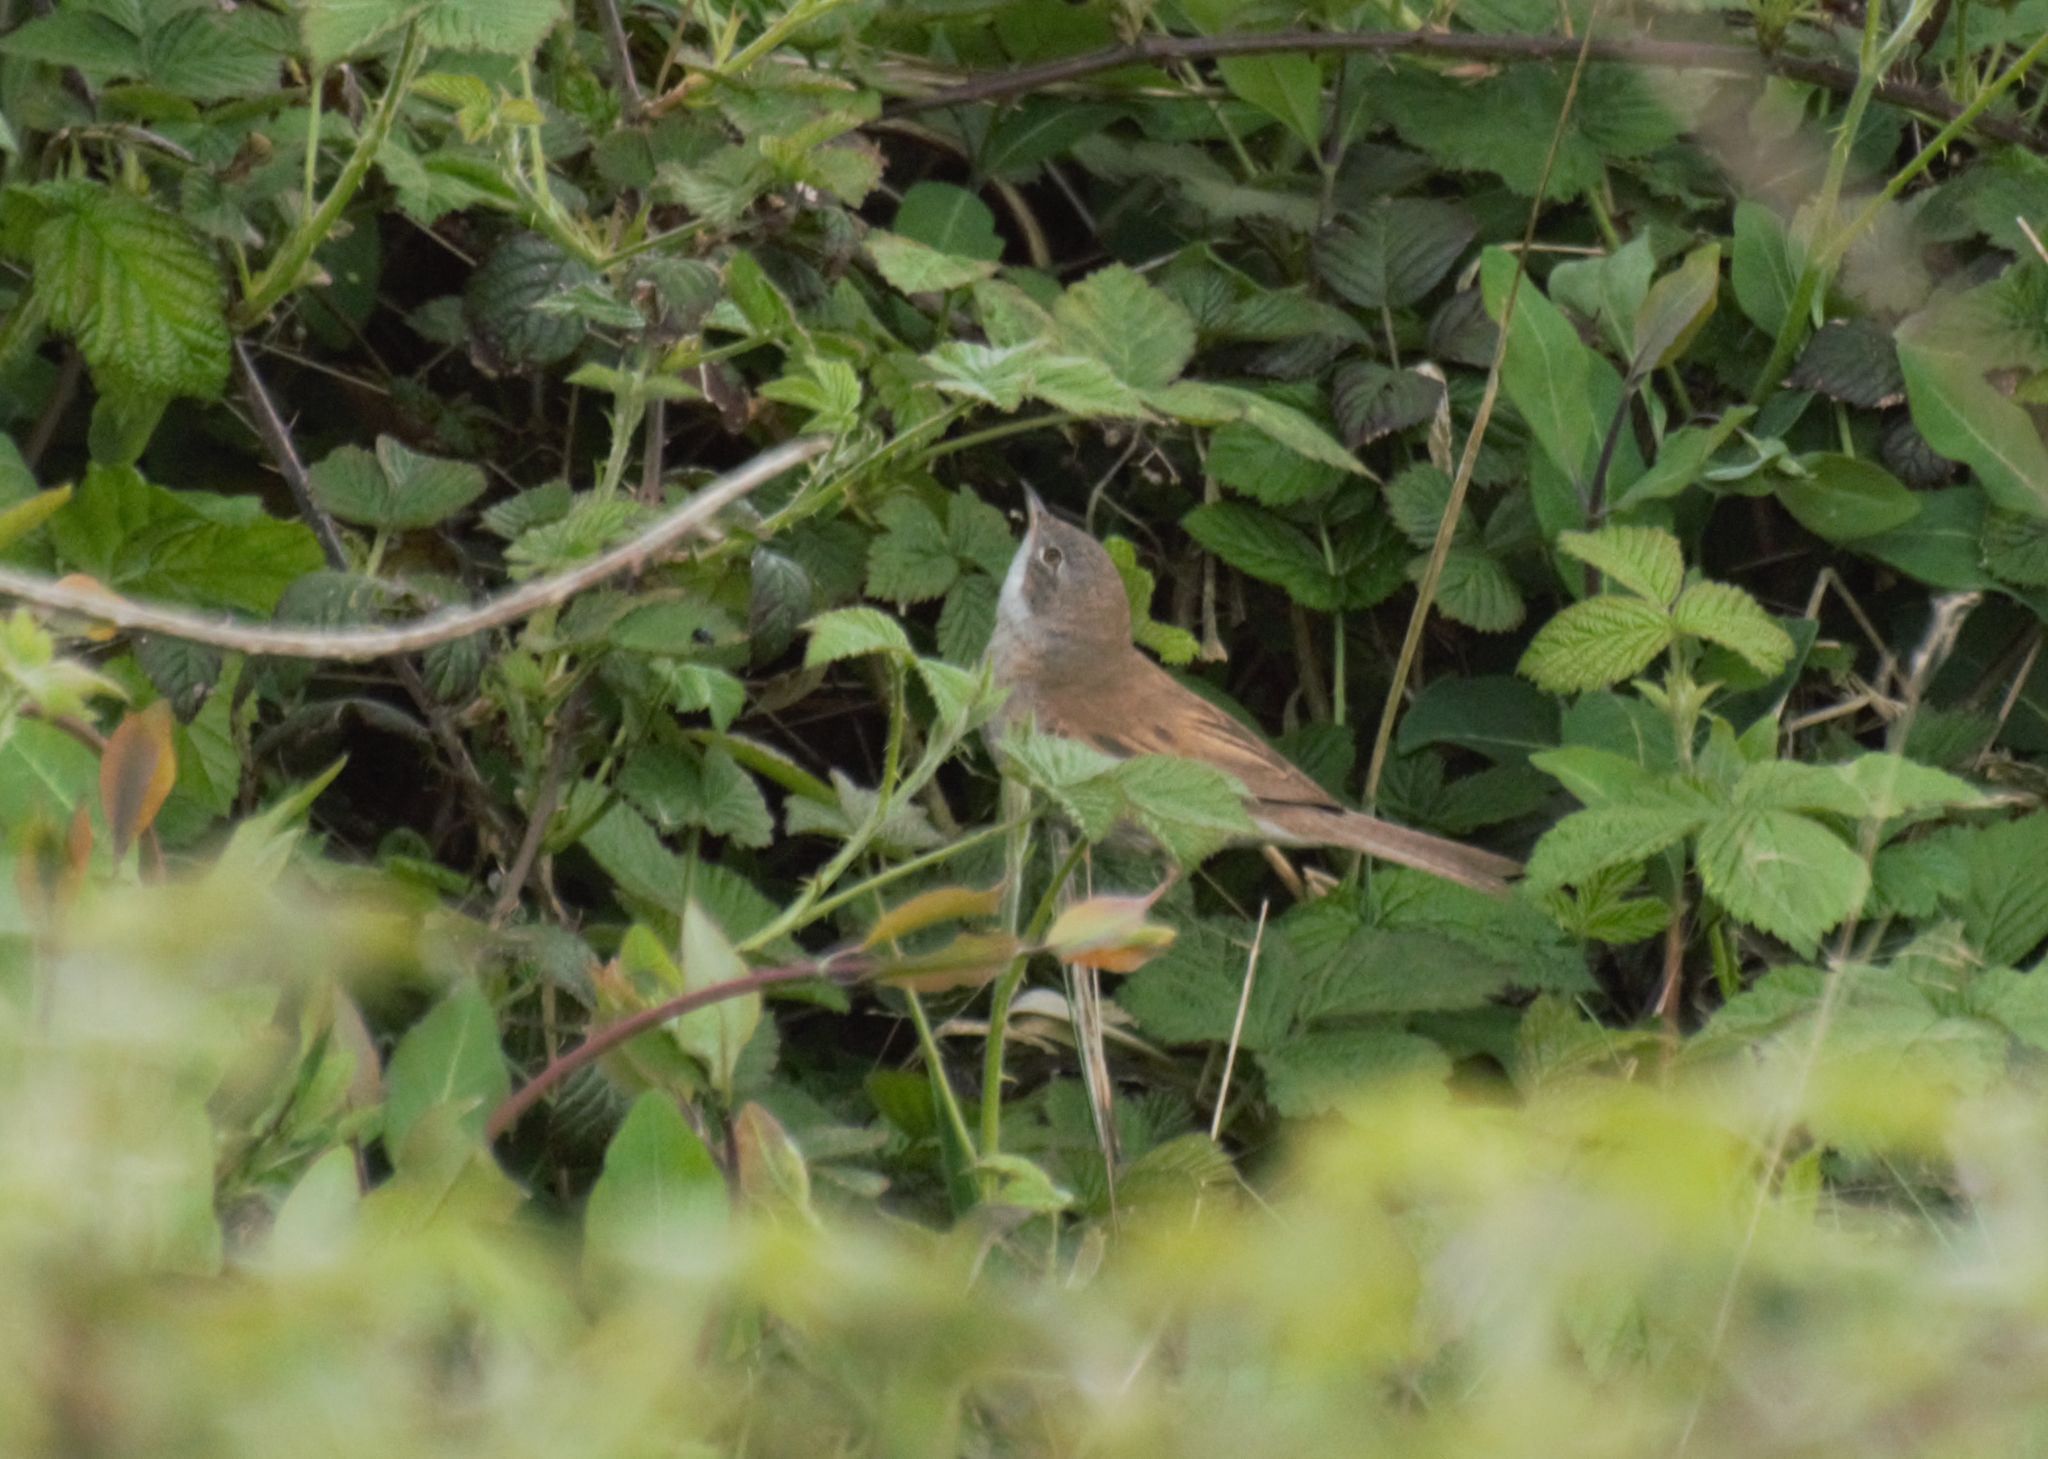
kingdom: Animalia
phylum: Chordata
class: Aves
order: Passeriformes
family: Sylviidae
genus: Sylvia
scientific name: Sylvia communis
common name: Common whitethroat
